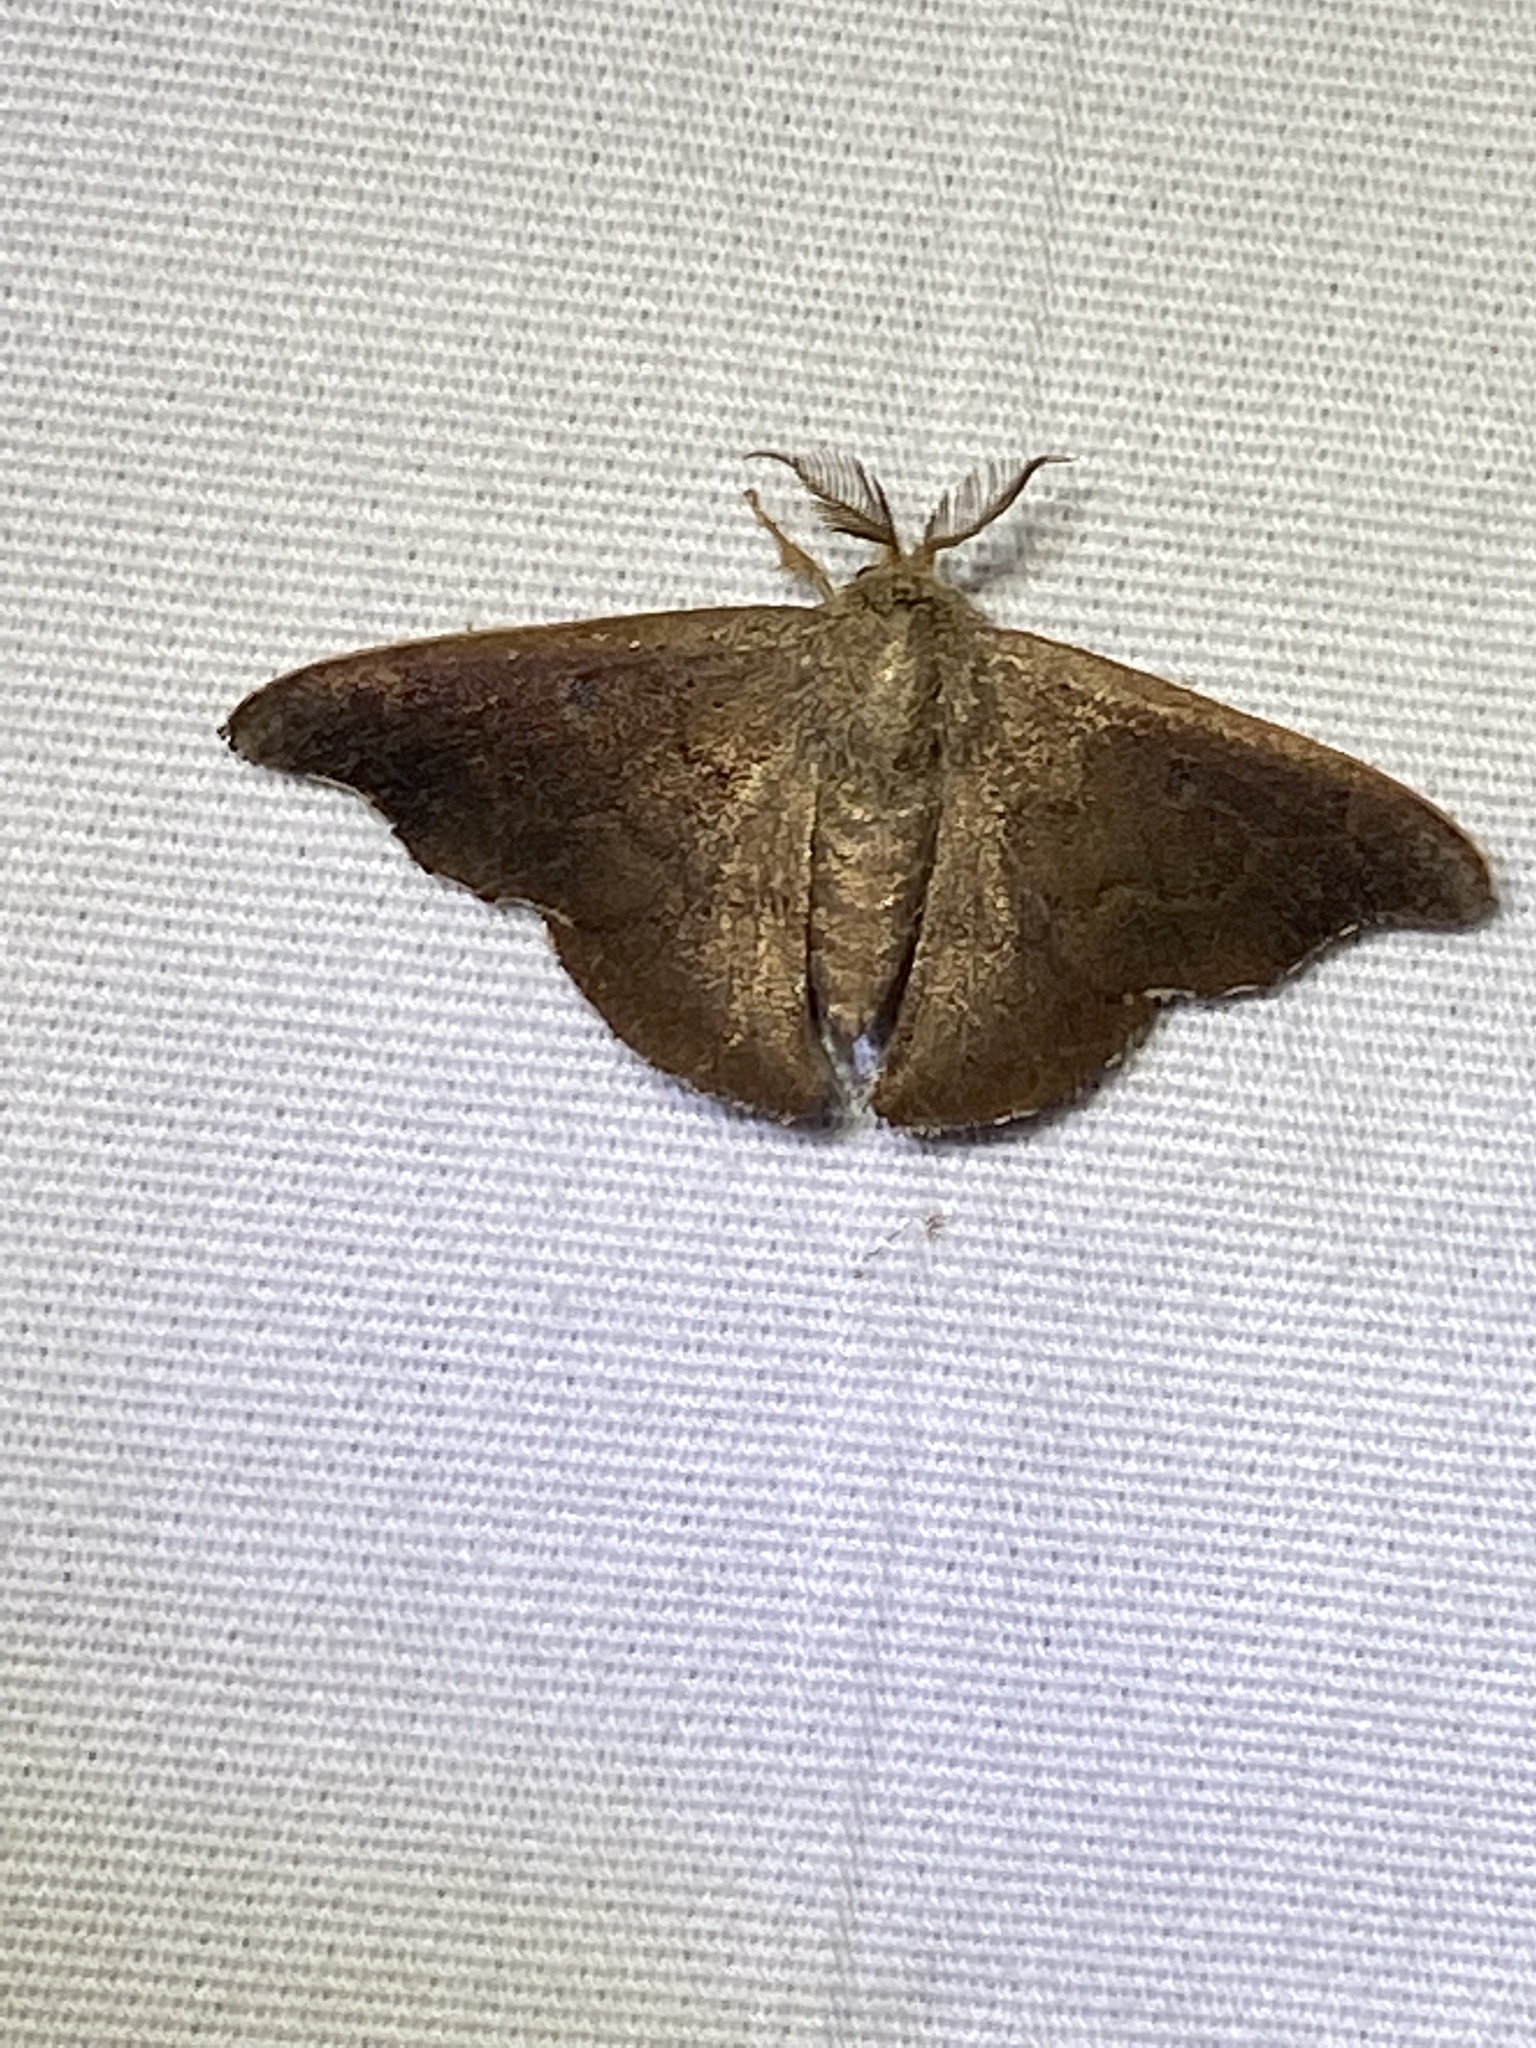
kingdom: Animalia
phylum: Arthropoda
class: Insecta
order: Lepidoptera
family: Mimallonidae
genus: Lacosoma
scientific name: Lacosoma chiridota
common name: Scalloped sack-bearer moth
